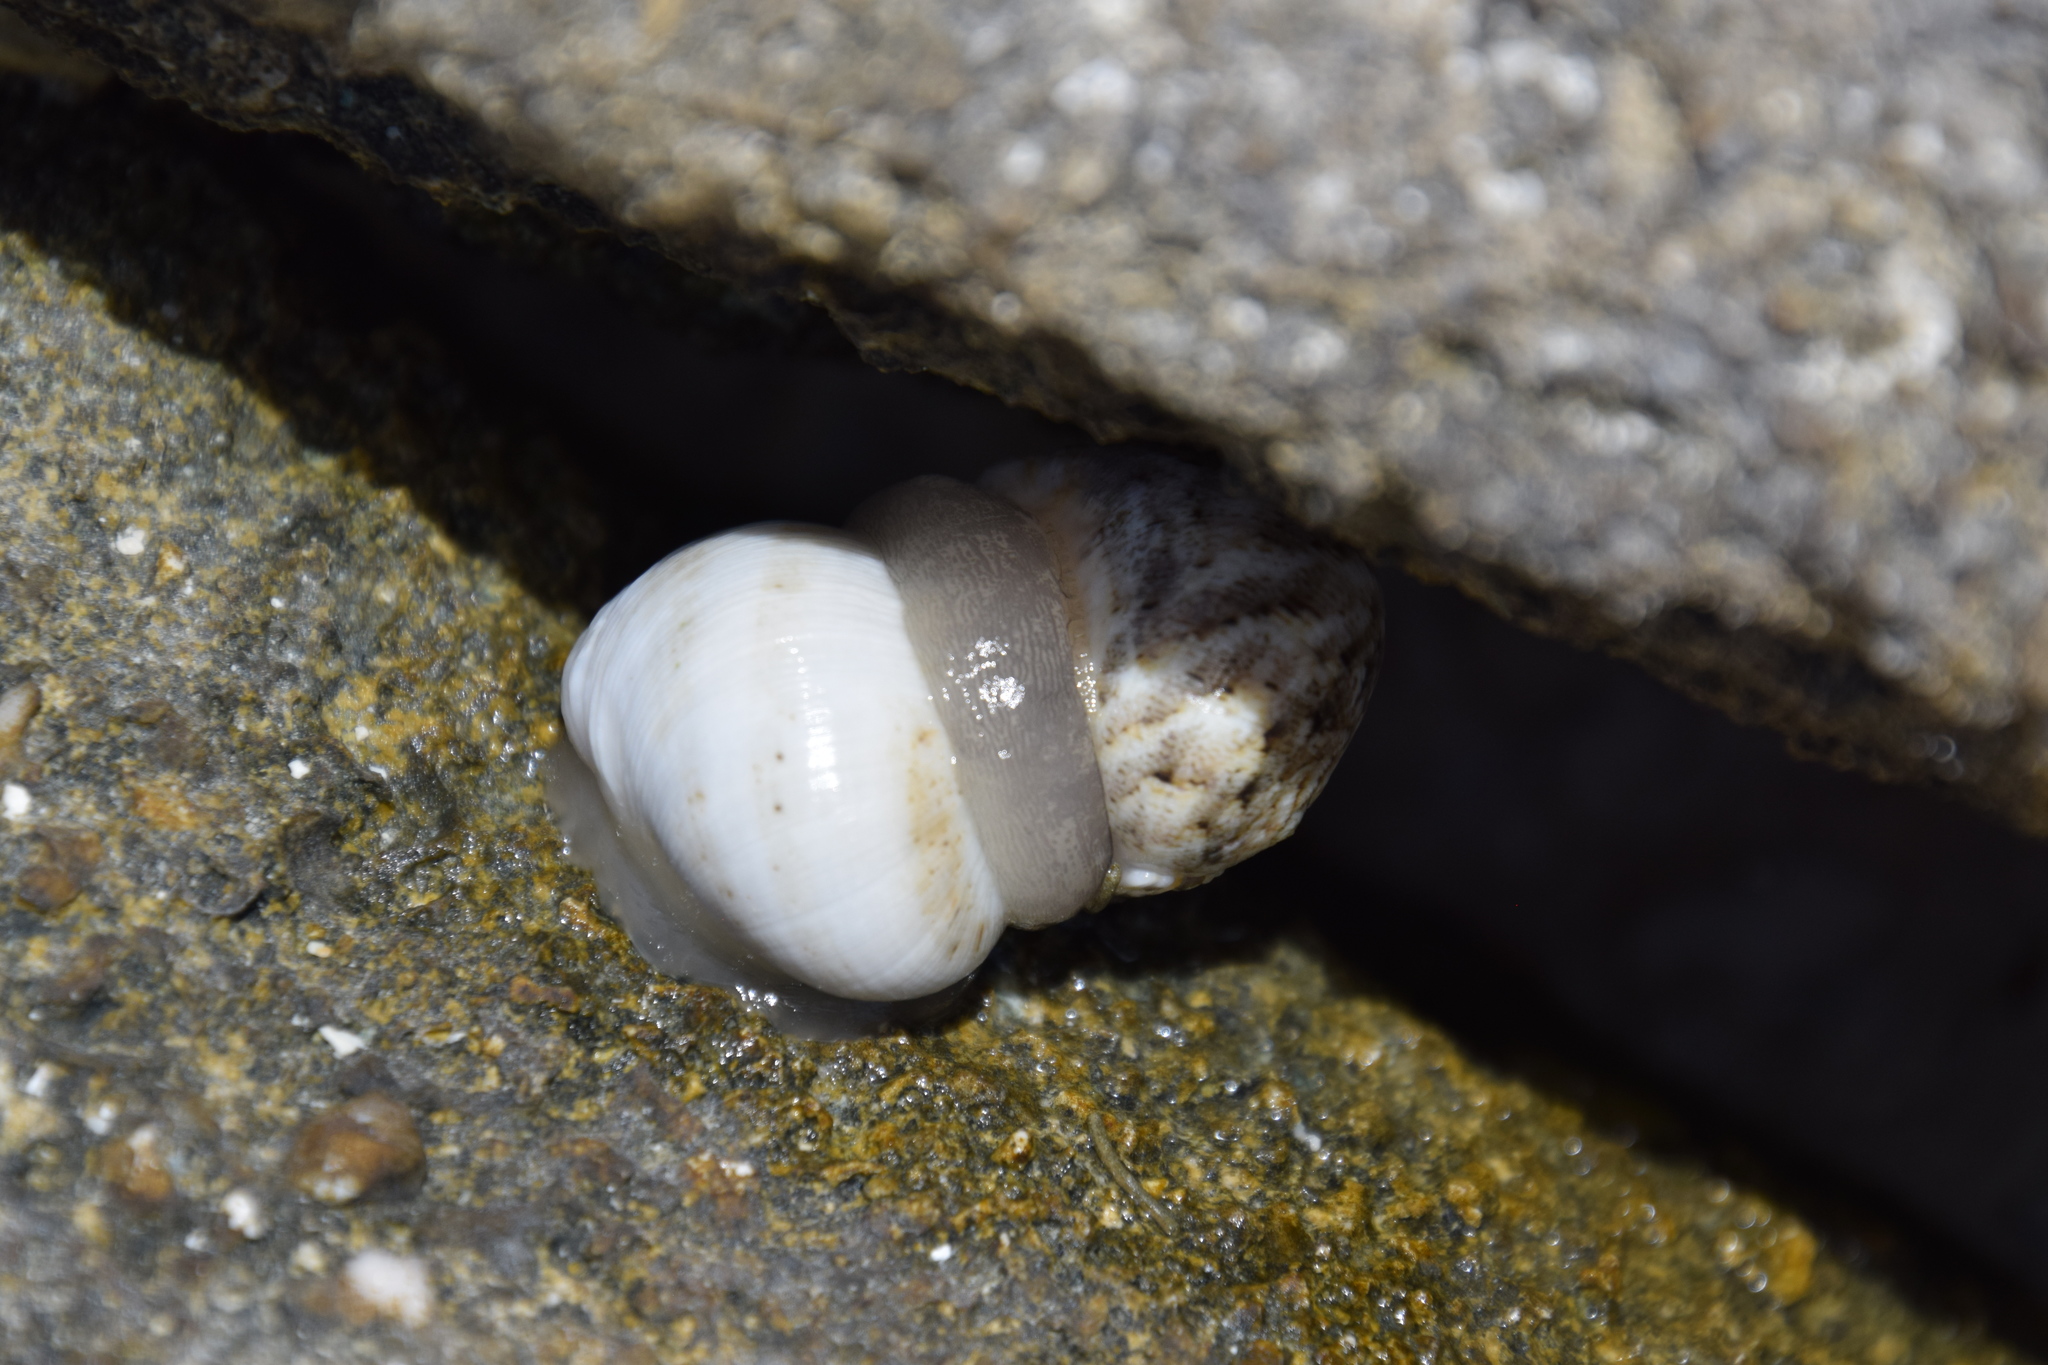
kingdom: Animalia
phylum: Mollusca
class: Gastropoda
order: Cycloneritida
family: Neritidae
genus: Nerita
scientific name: Nerita polita
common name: Polished nerite
